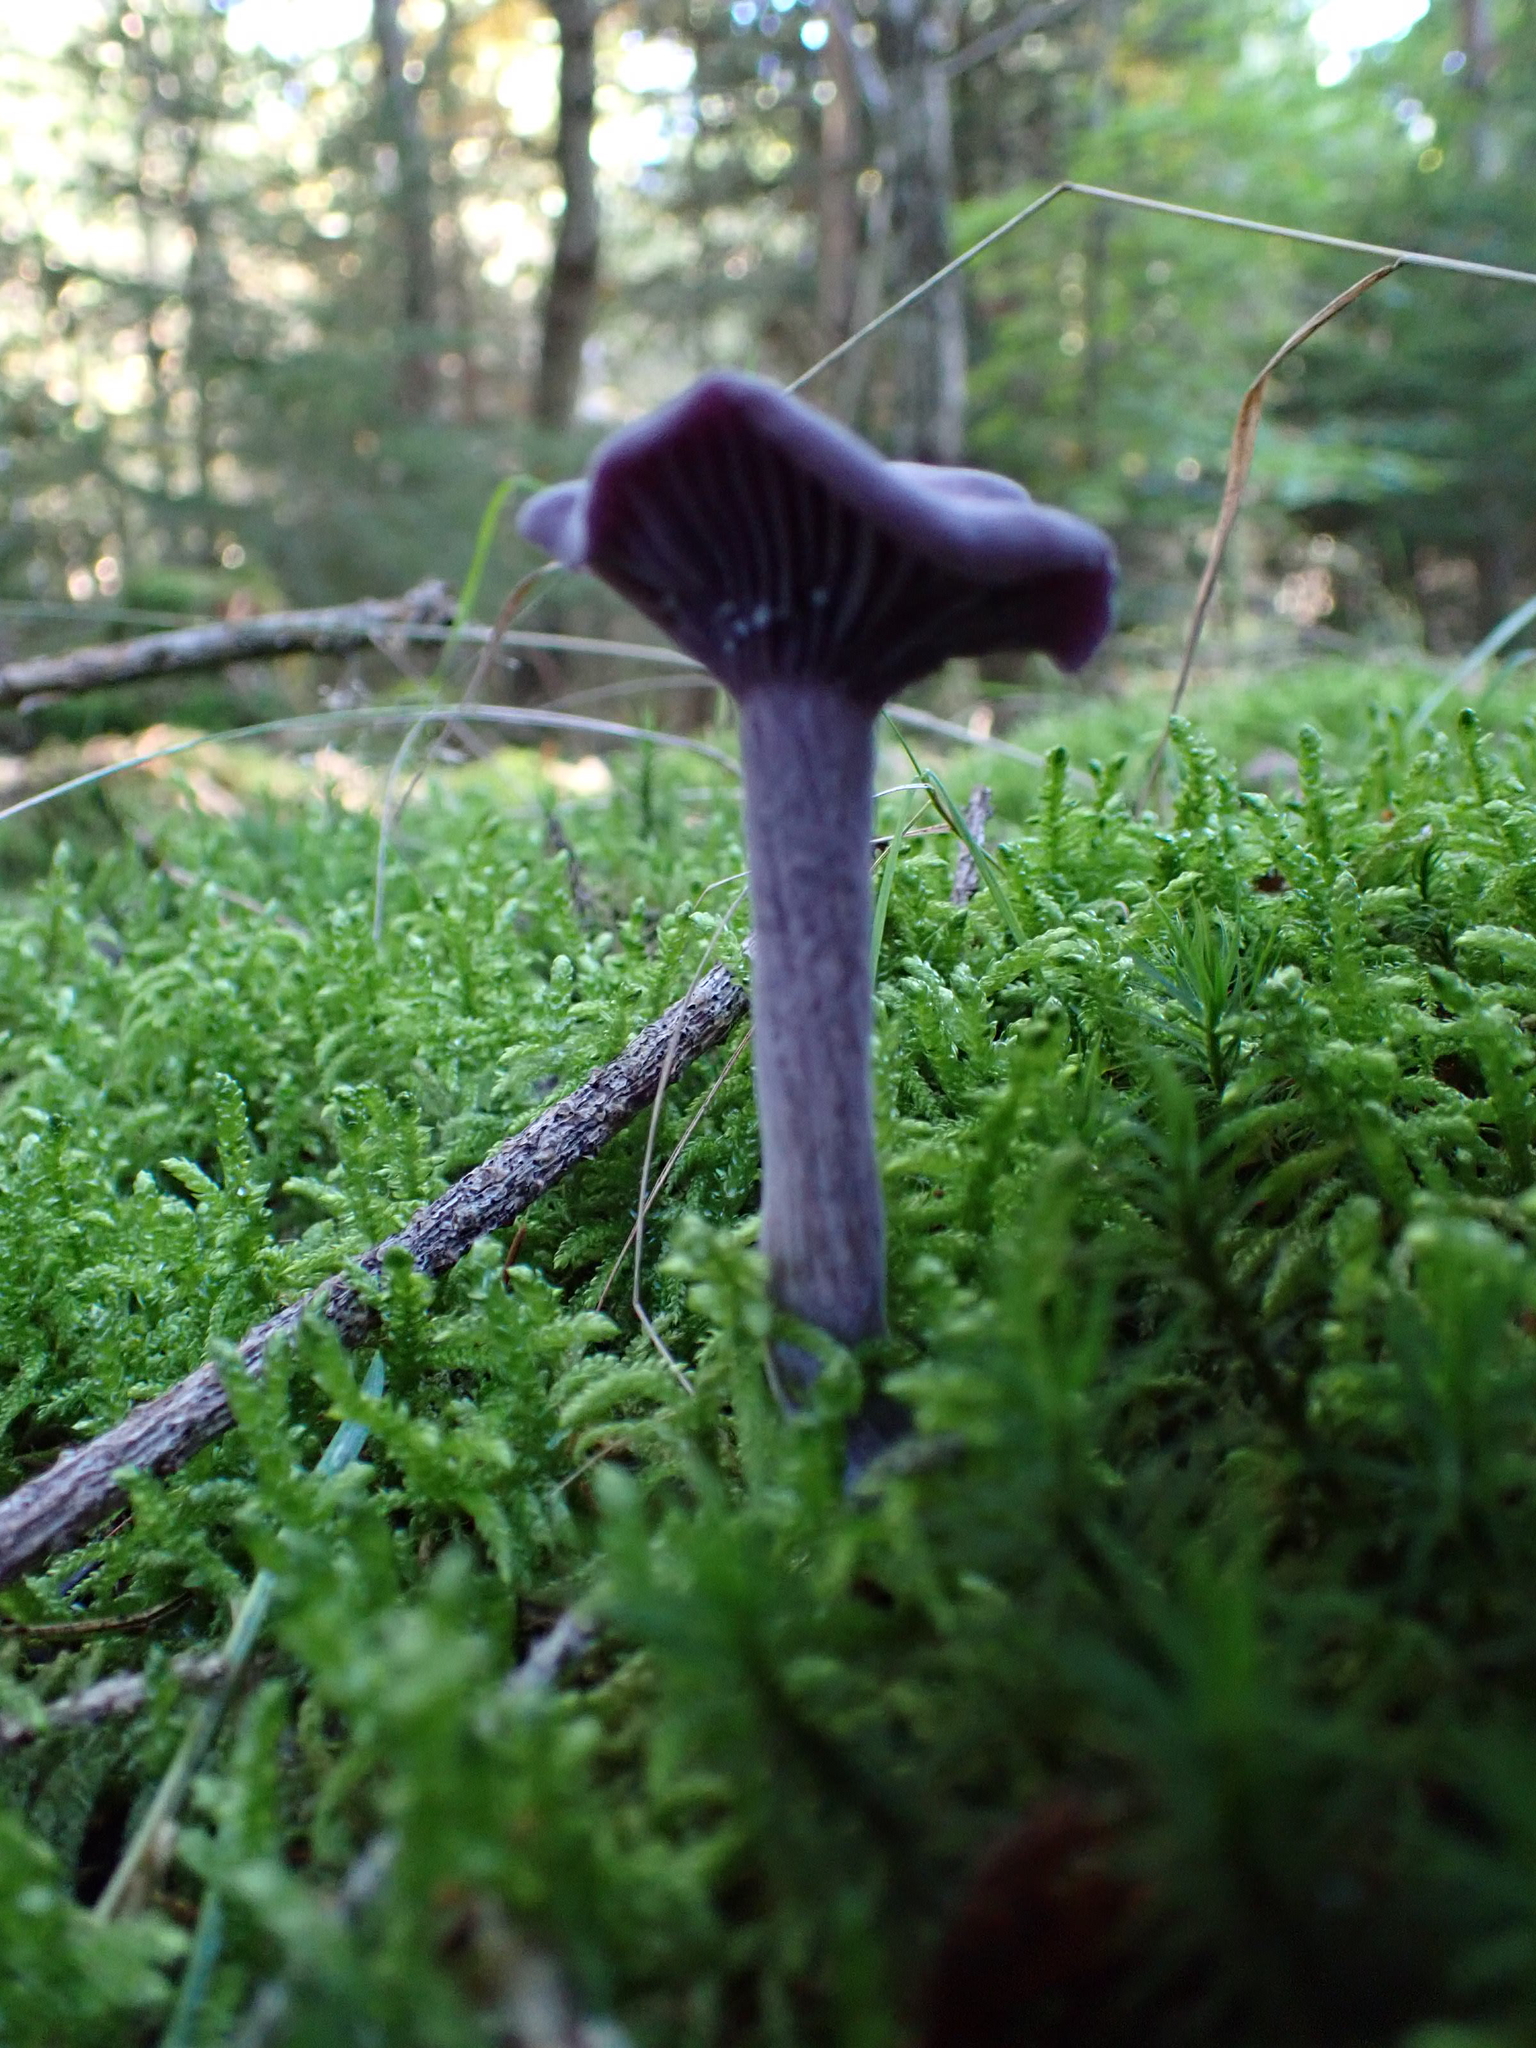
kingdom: Fungi
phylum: Basidiomycota
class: Agaricomycetes
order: Agaricales
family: Hydnangiaceae
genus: Laccaria
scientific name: Laccaria amethystina
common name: Amethyst deceiver
